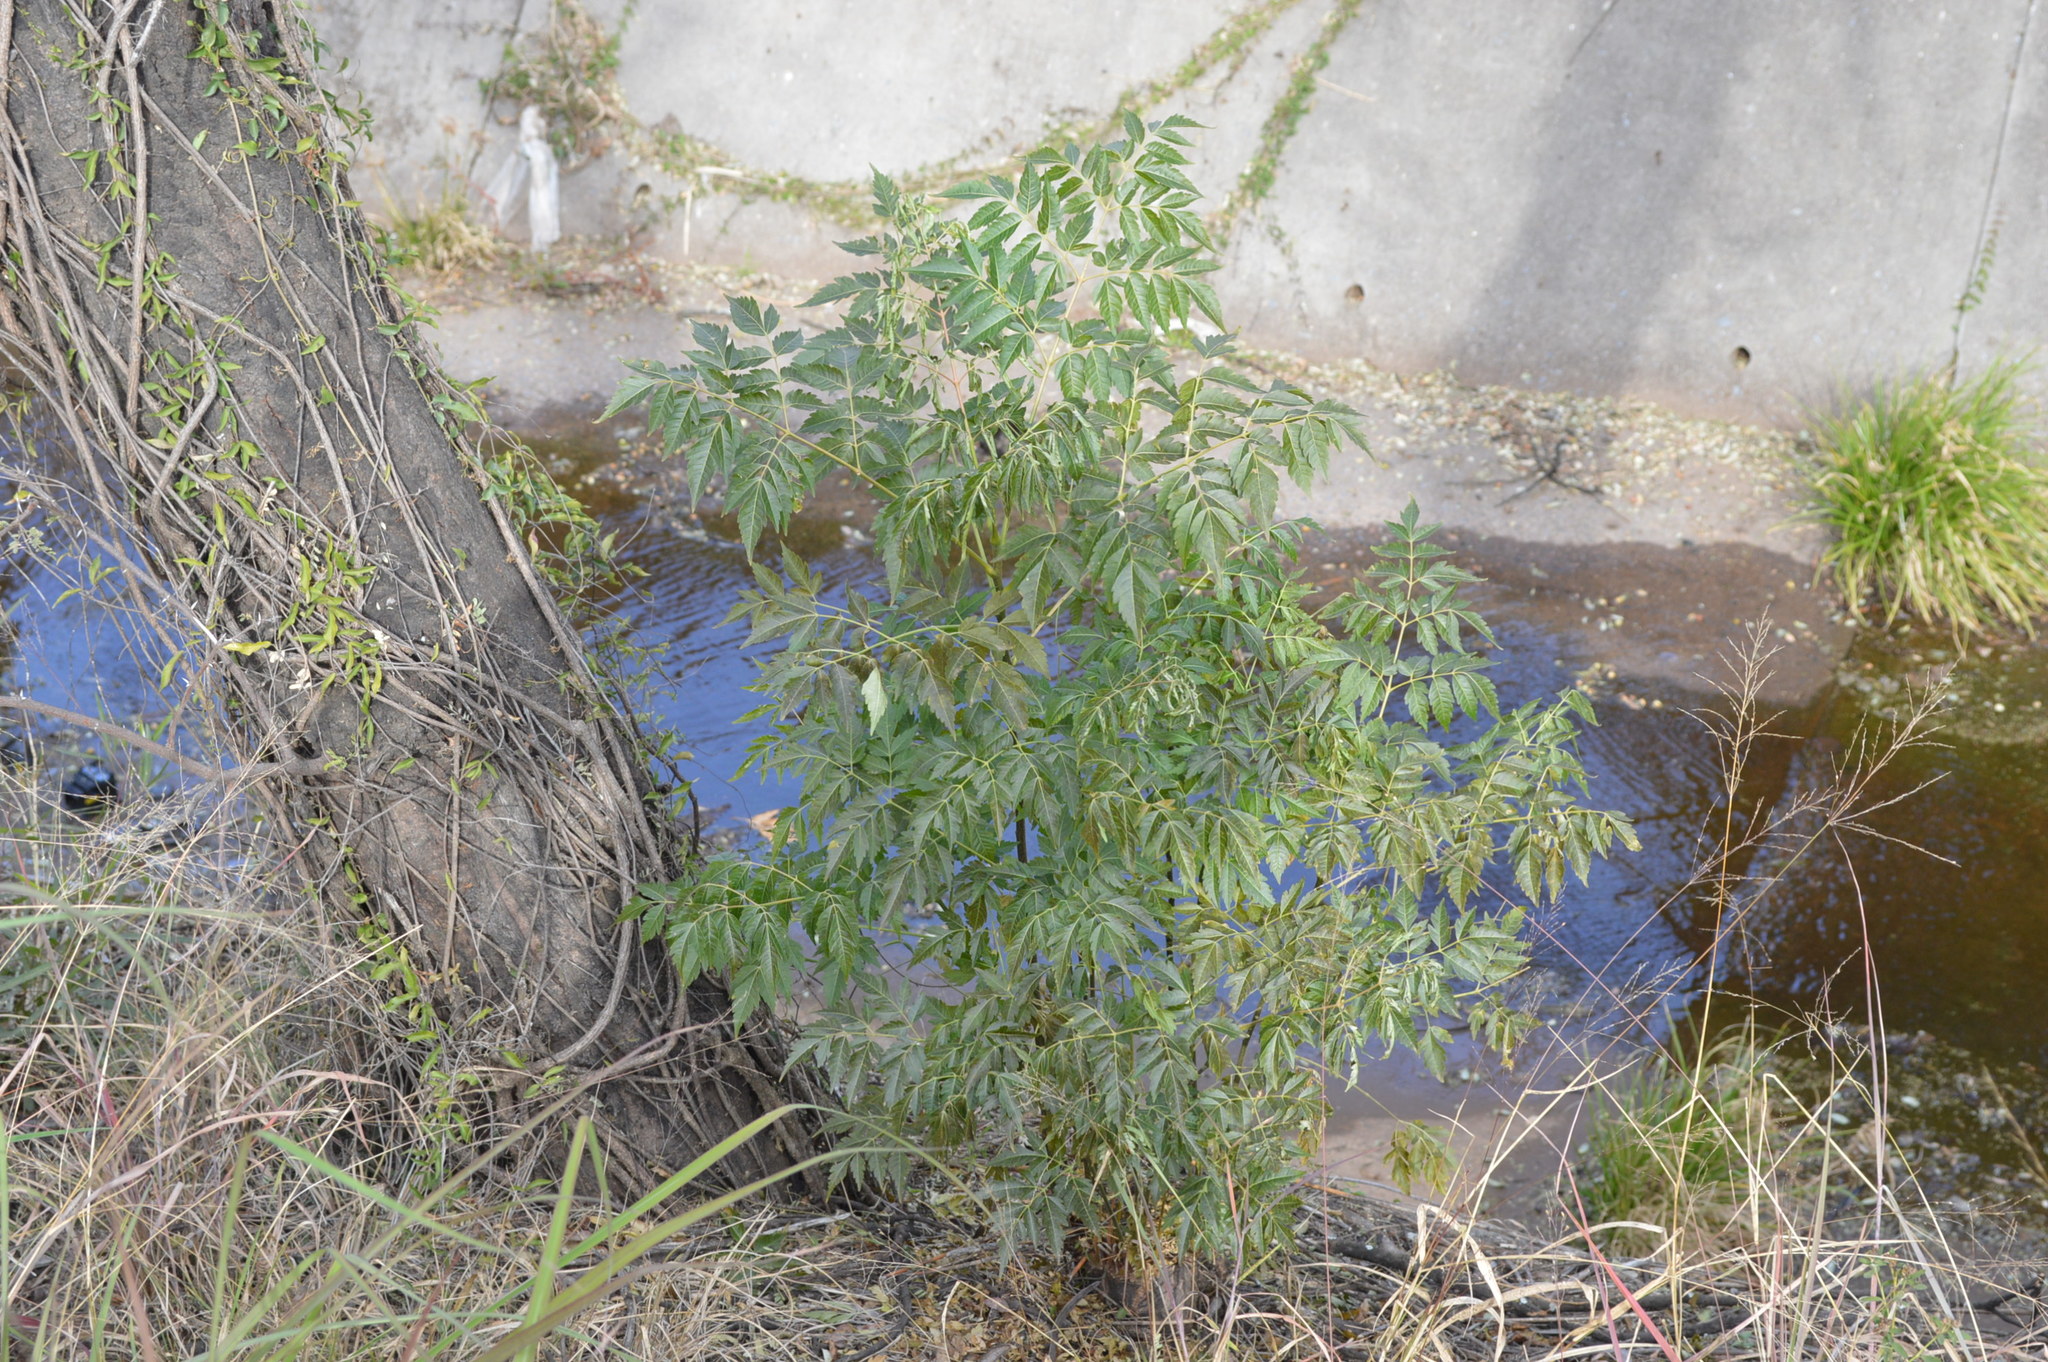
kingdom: Plantae
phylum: Tracheophyta
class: Magnoliopsida
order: Sapindales
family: Meliaceae
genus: Melia
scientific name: Melia azedarach
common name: Chinaberrytree
